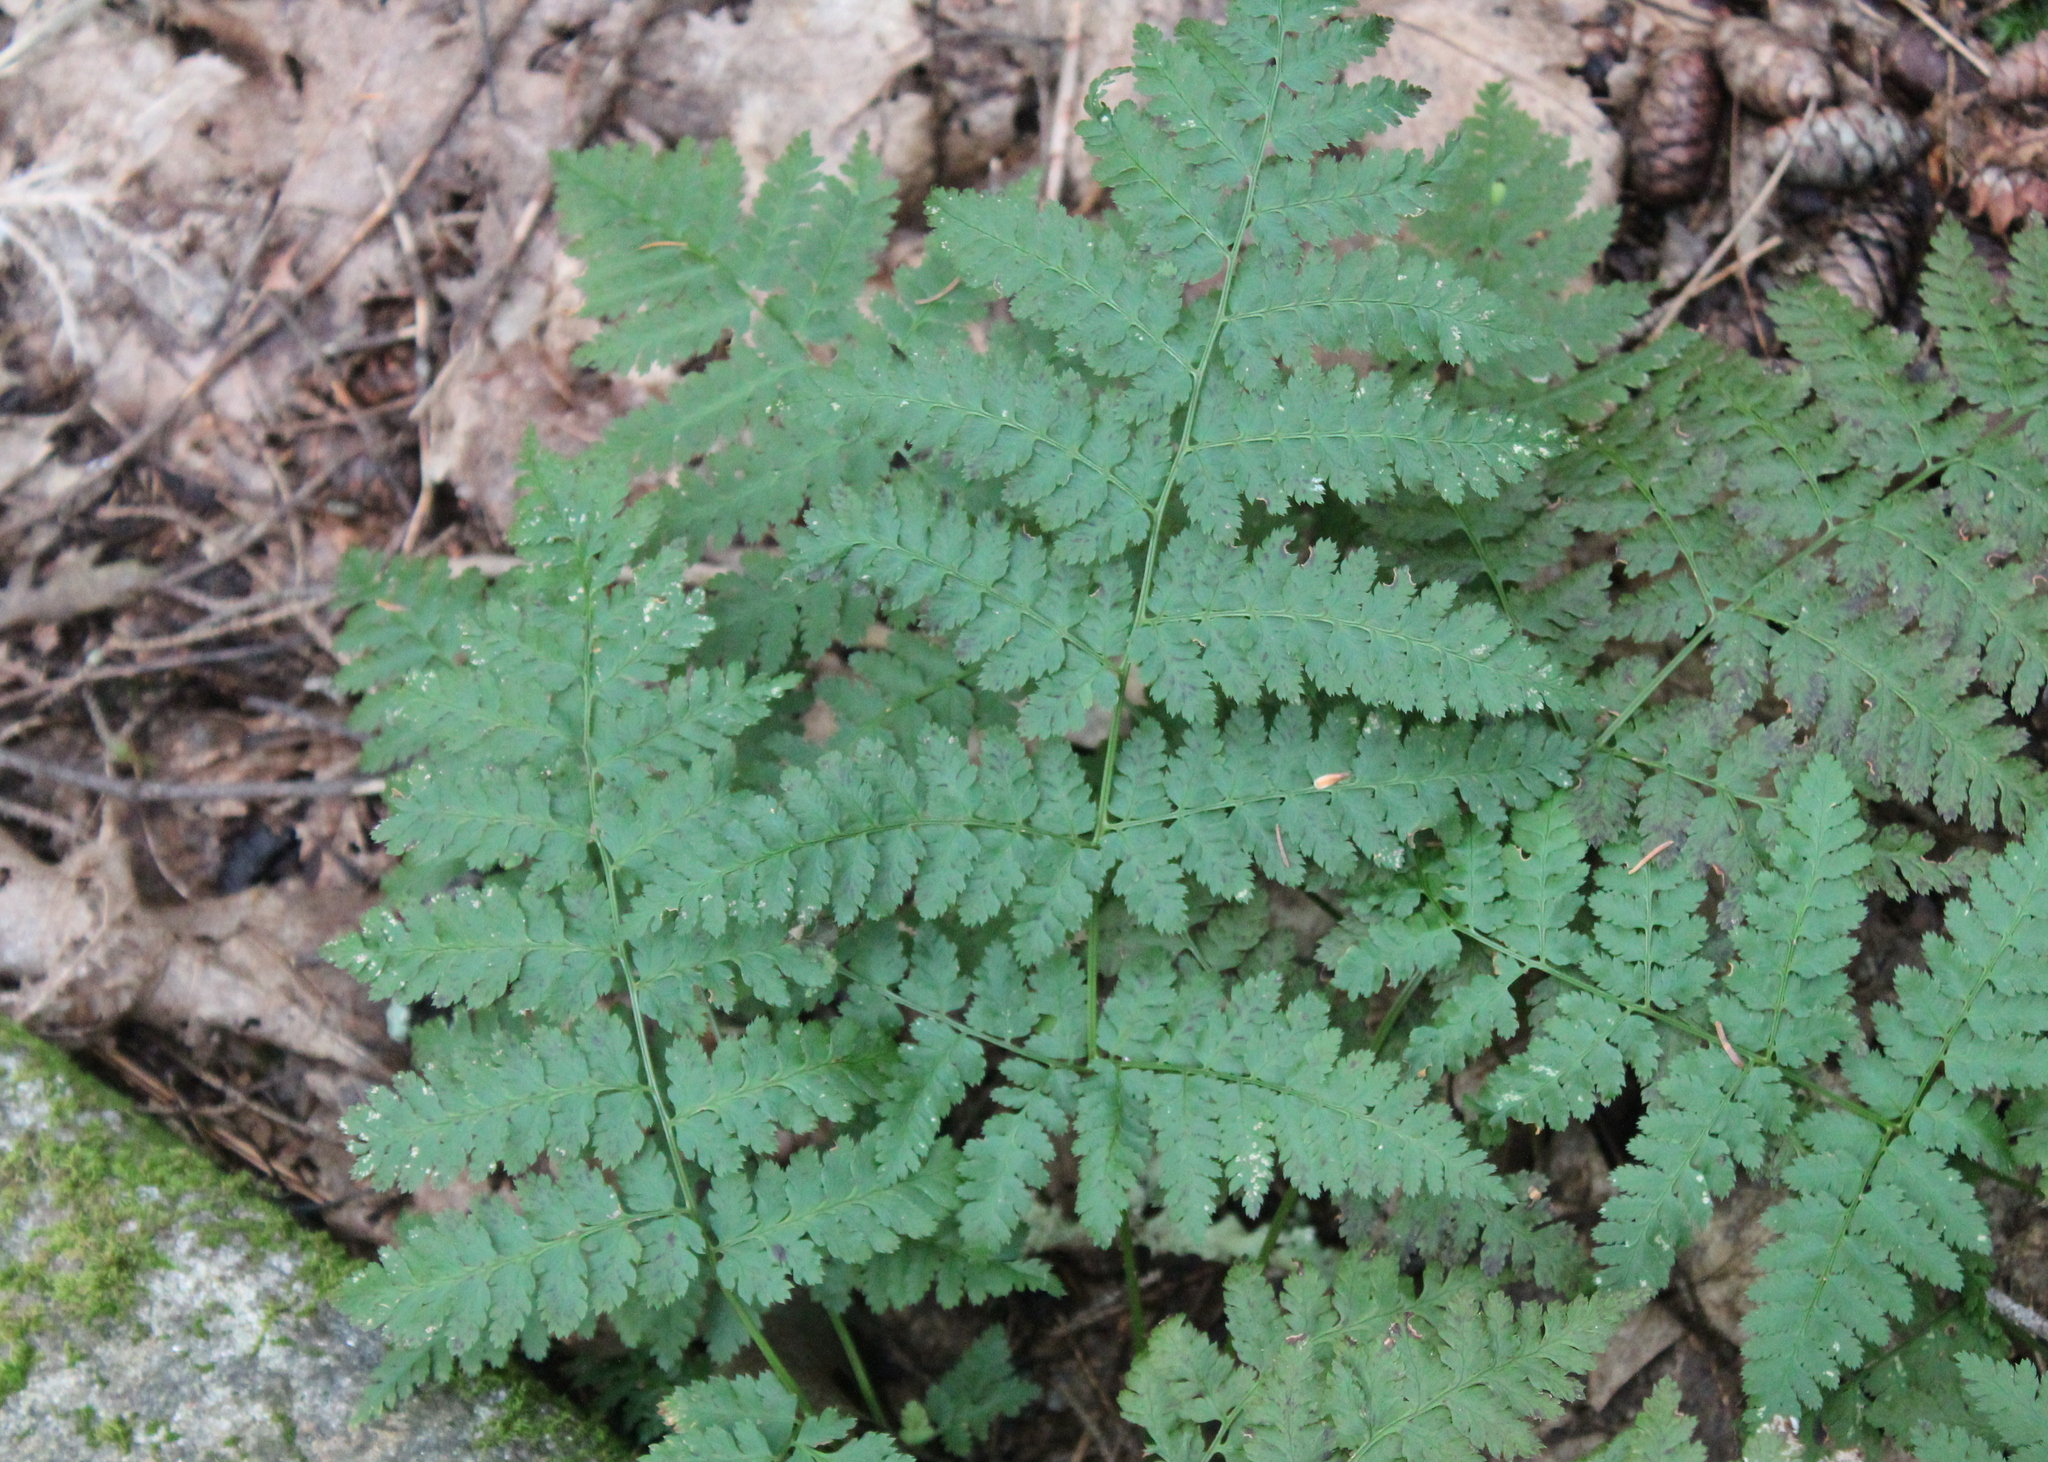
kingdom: Plantae
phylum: Tracheophyta
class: Polypodiopsida
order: Polypodiales
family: Dryopteridaceae
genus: Dryopteris
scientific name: Dryopteris intermedia
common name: Evergreen wood fern
